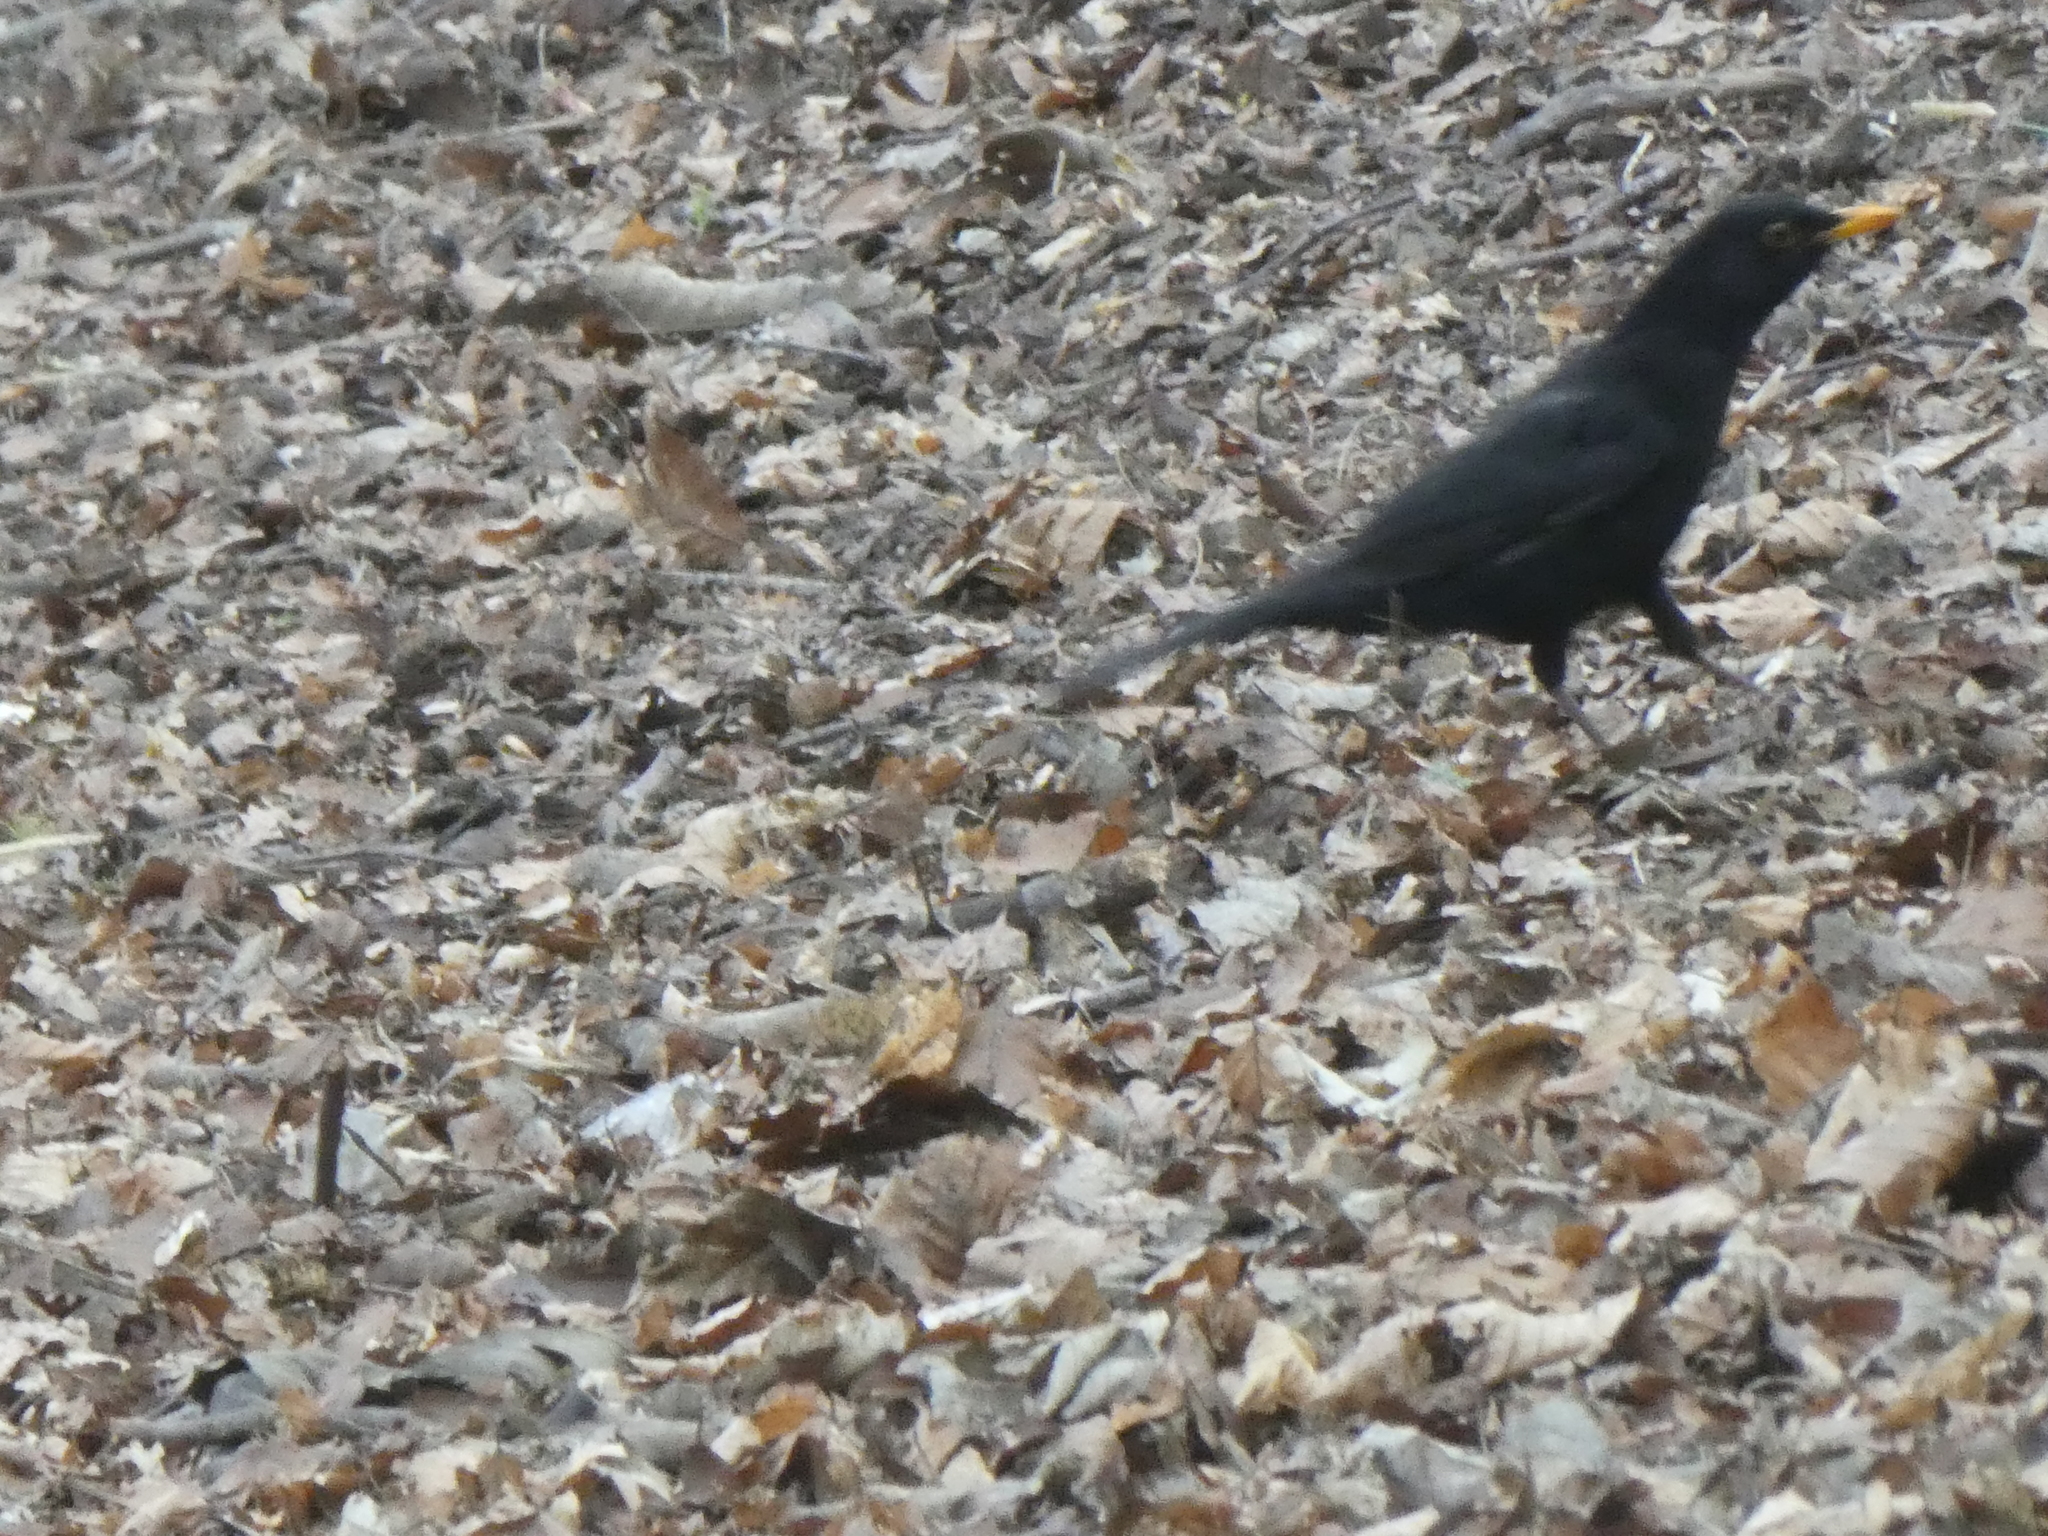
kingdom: Animalia
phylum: Chordata
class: Aves
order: Passeriformes
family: Turdidae
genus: Turdus
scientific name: Turdus merula
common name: Common blackbird
